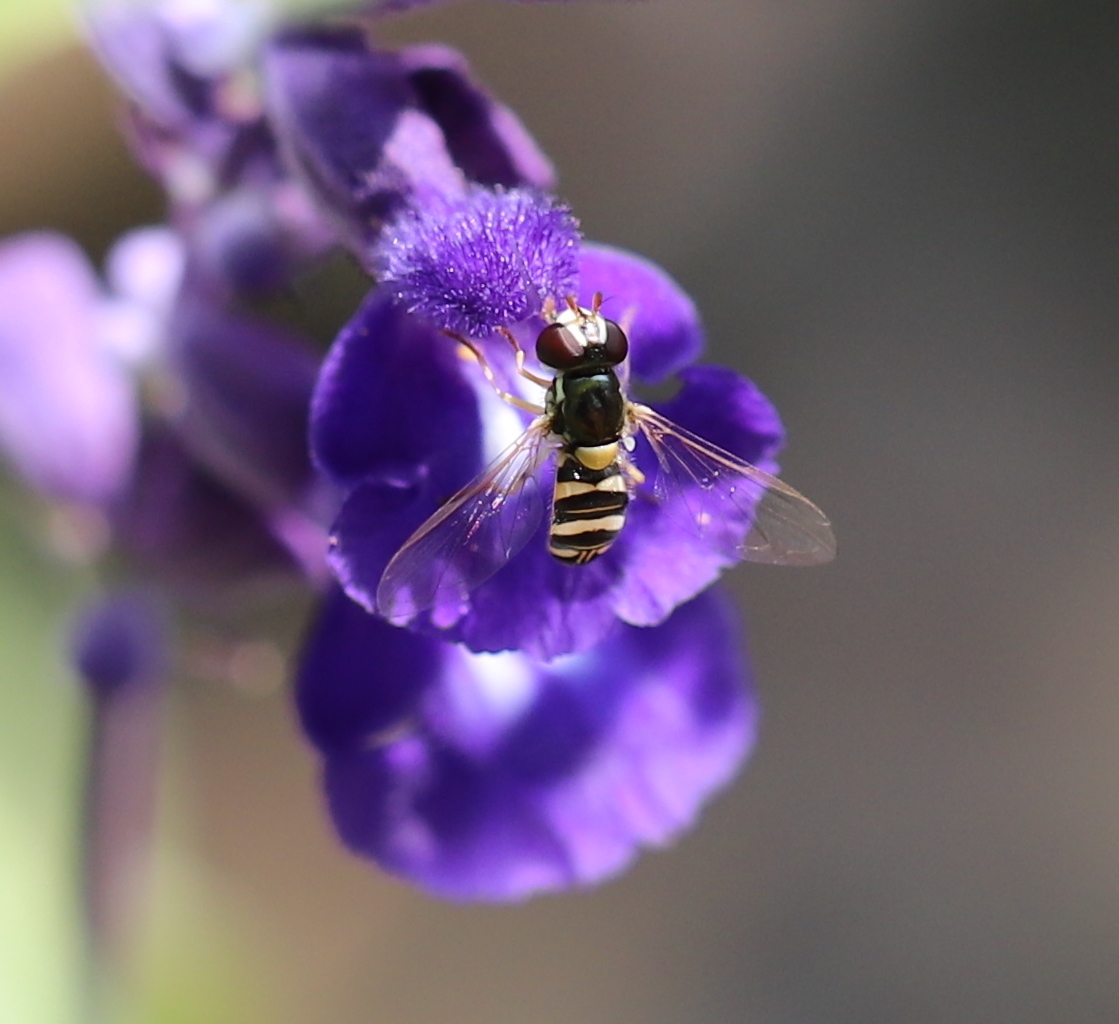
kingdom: Animalia
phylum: Arthropoda
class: Insecta
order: Diptera
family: Syrphidae
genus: Allograpta
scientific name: Allograpta exotica
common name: Syrphid fly
